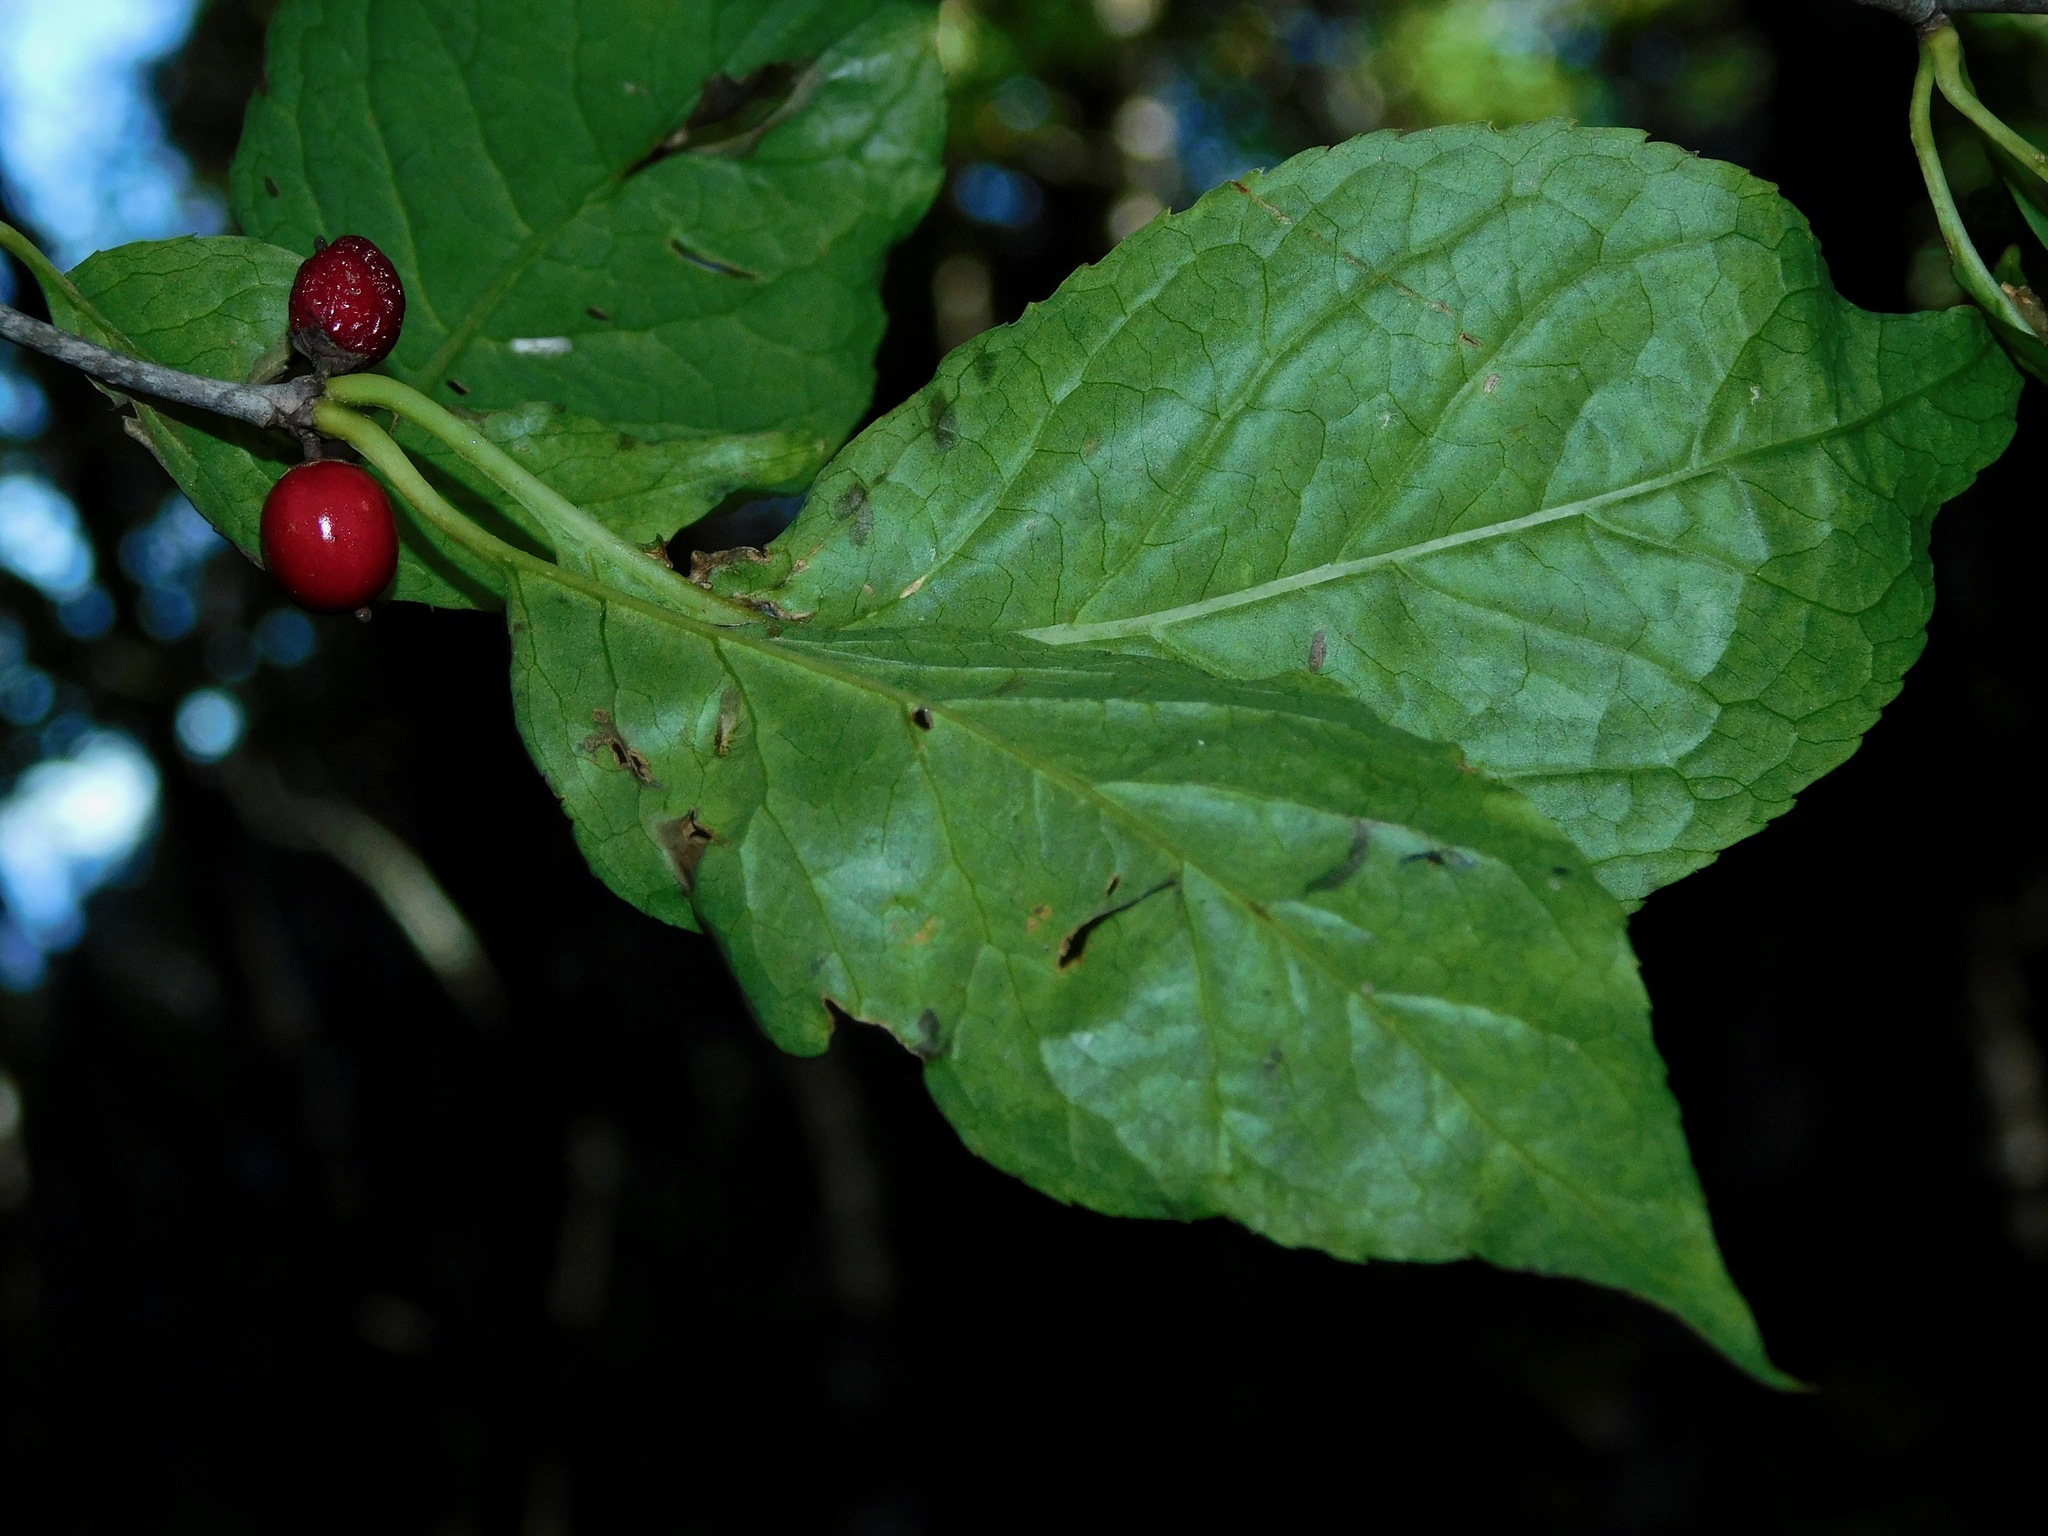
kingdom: Plantae
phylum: Tracheophyta
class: Magnoliopsida
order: Aquifoliales
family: Aquifoliaceae
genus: Ilex
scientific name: Ilex montana
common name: Mountain winterberry
